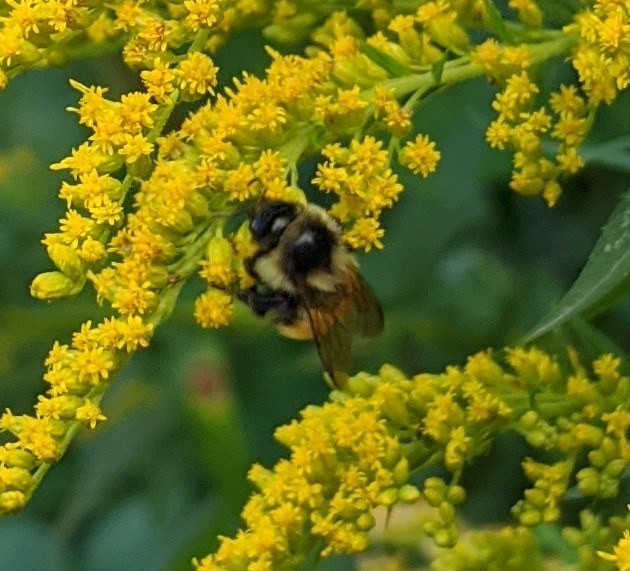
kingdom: Animalia
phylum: Arthropoda
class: Insecta
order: Hymenoptera
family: Apidae
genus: Bombus
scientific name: Bombus ternarius
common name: Tri-colored bumble bee
